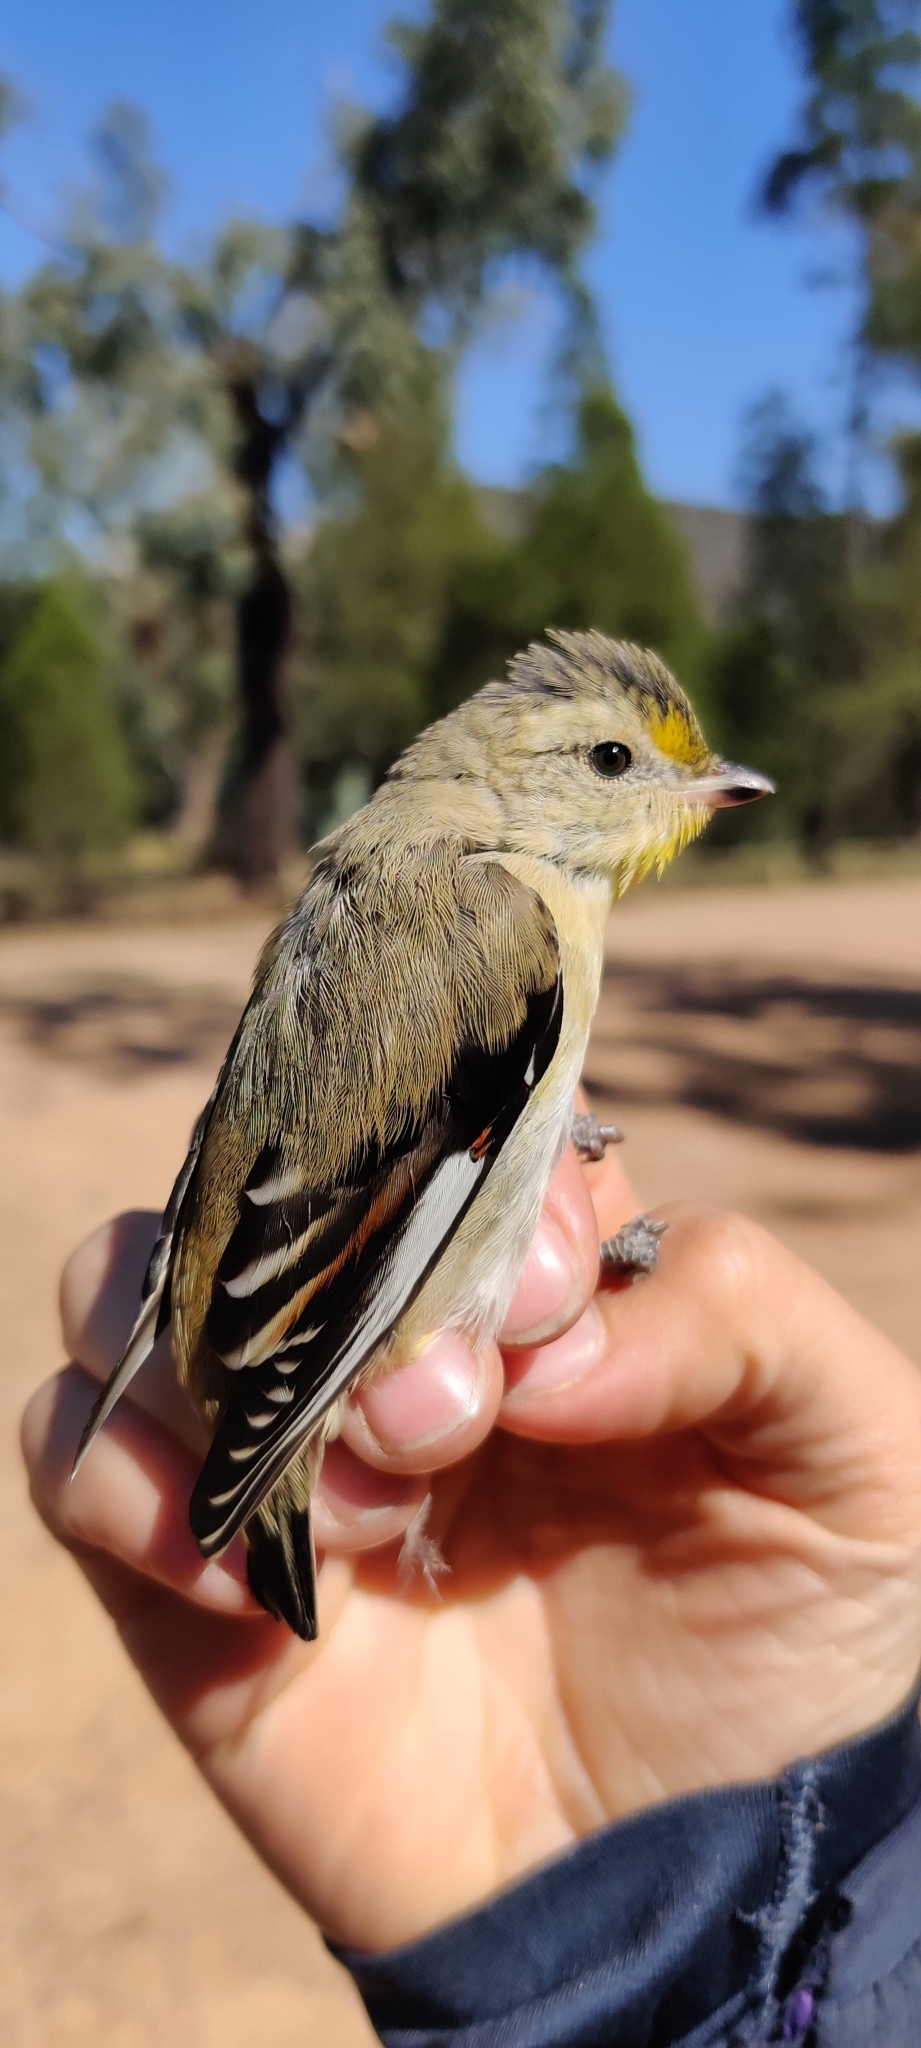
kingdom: Animalia
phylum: Chordata
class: Aves
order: Passeriformes
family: Pardalotidae
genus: Pardalotus
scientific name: Pardalotus striatus
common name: Striated pardalote
